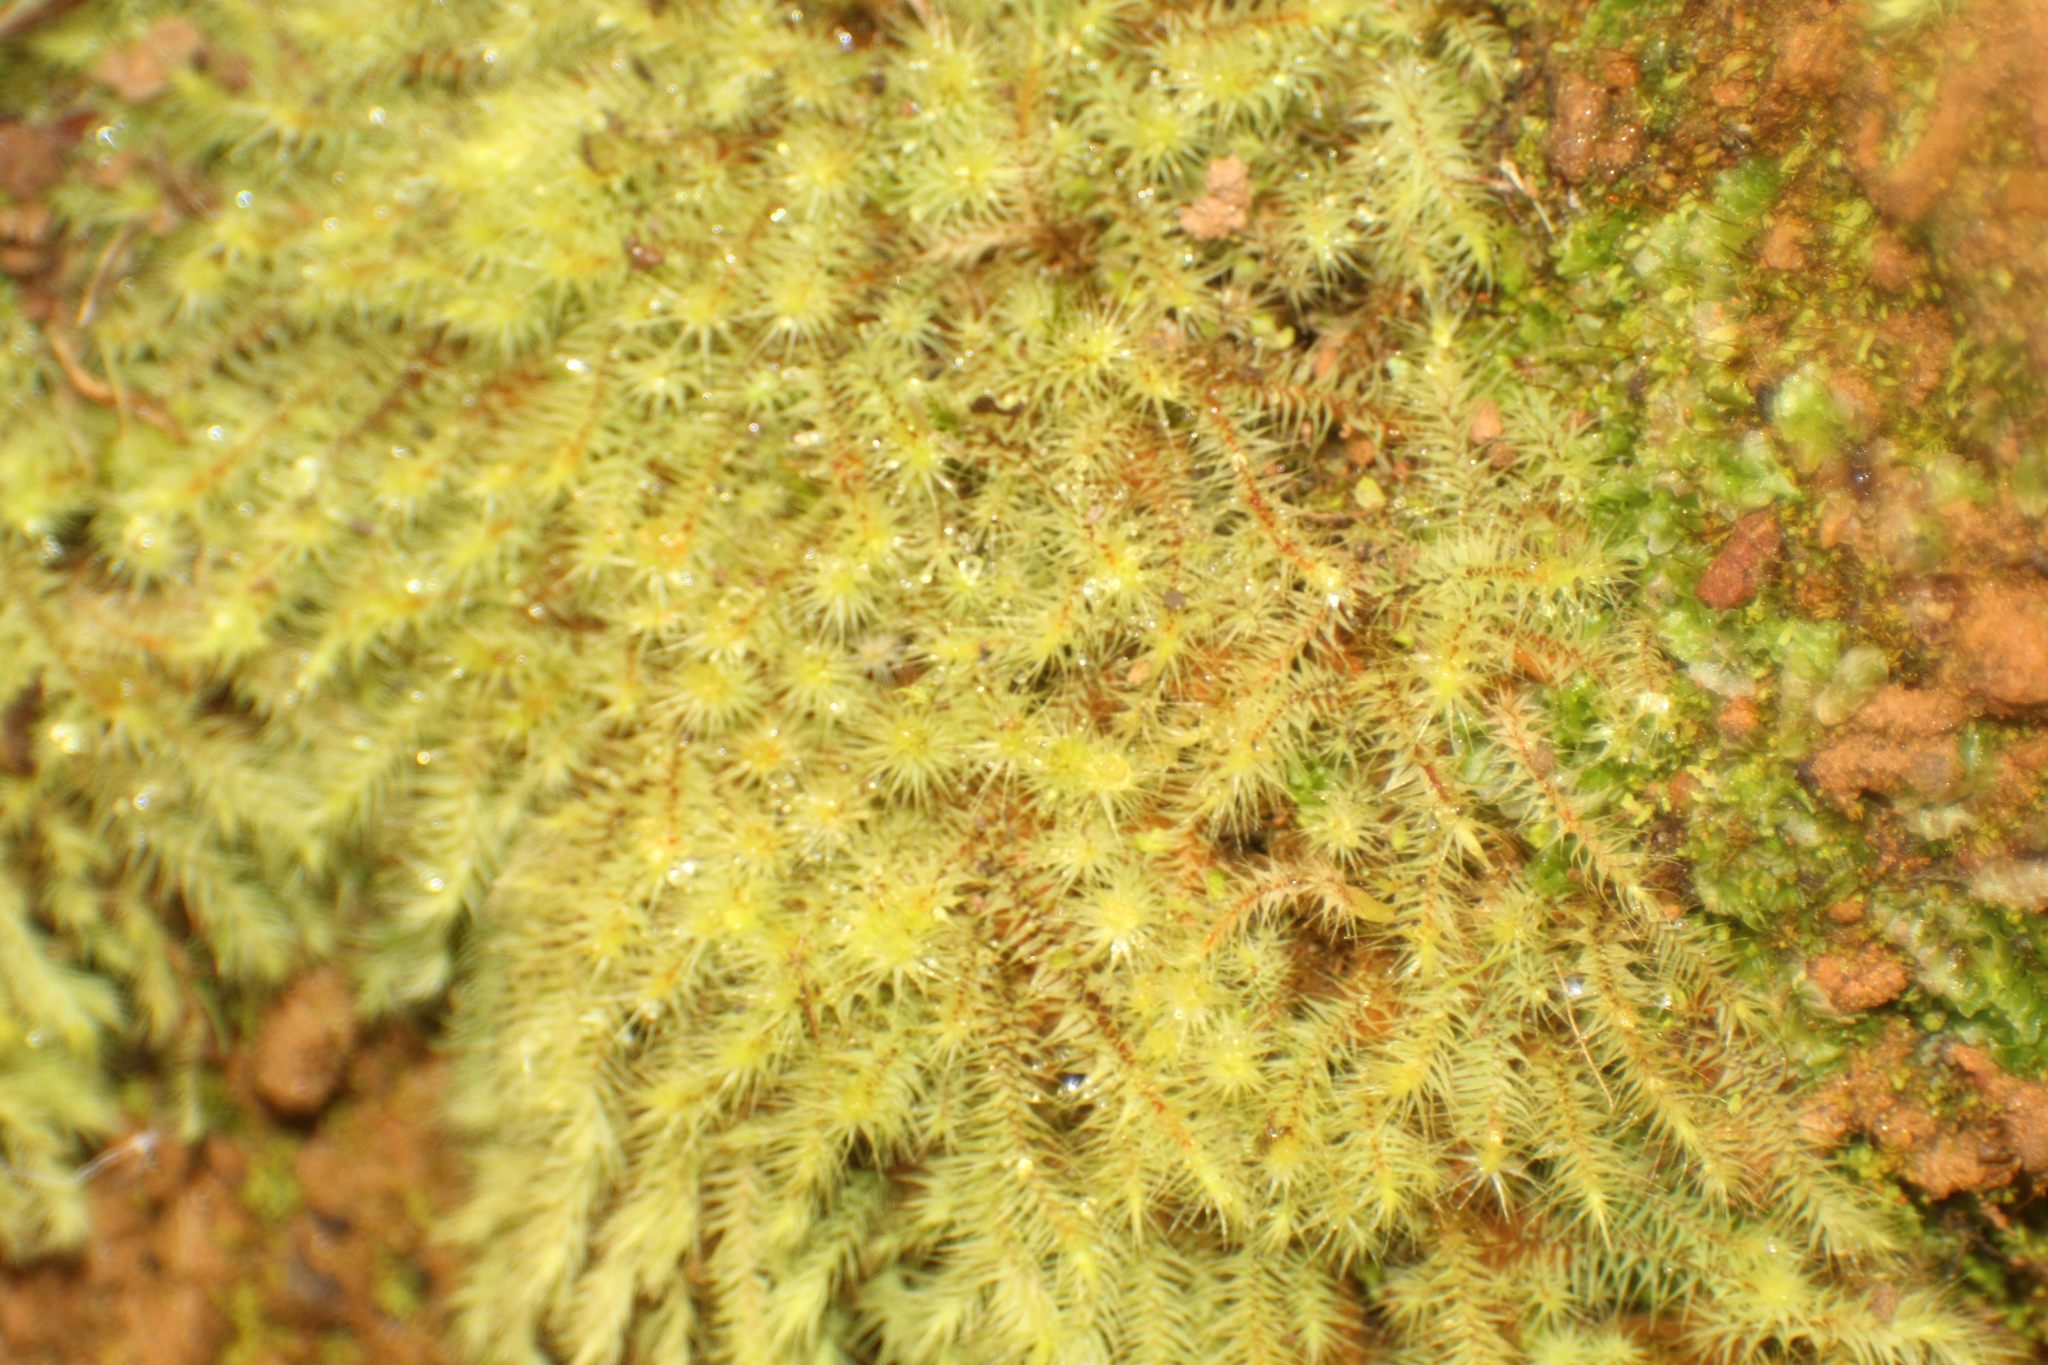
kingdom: Plantae
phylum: Bryophyta
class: Bryopsida
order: Bartramiales
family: Bartramiaceae
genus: Breutelia
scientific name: Breutelia affinis
